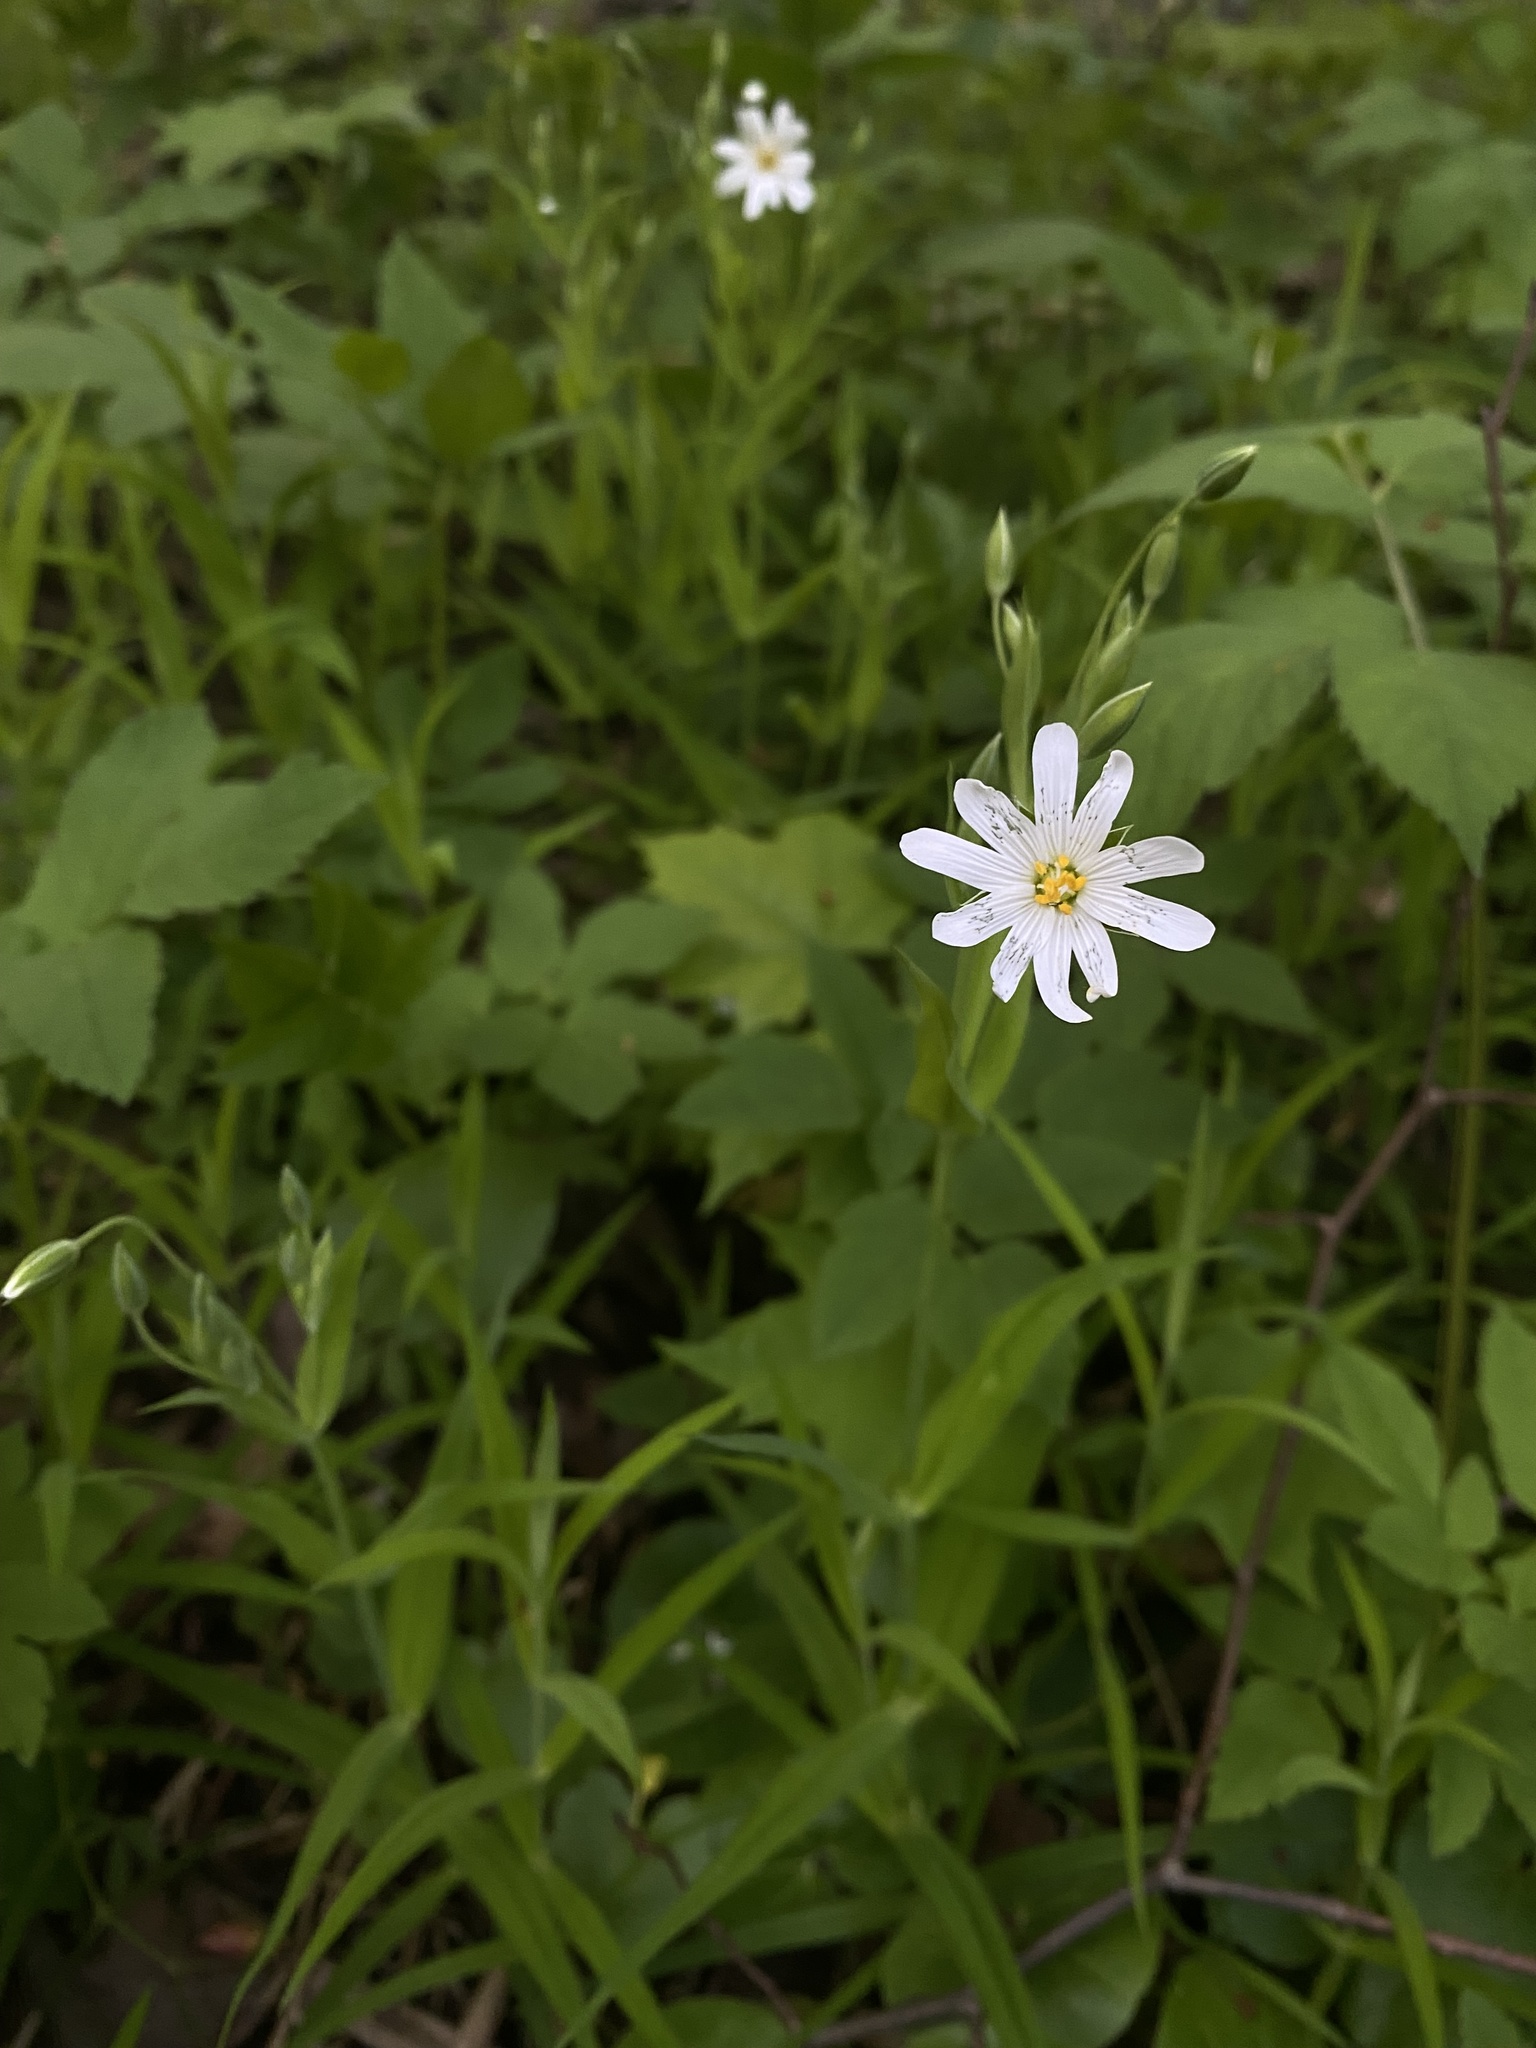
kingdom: Plantae
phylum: Tracheophyta
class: Magnoliopsida
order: Caryophyllales
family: Caryophyllaceae
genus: Rabelera
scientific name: Rabelera holostea
